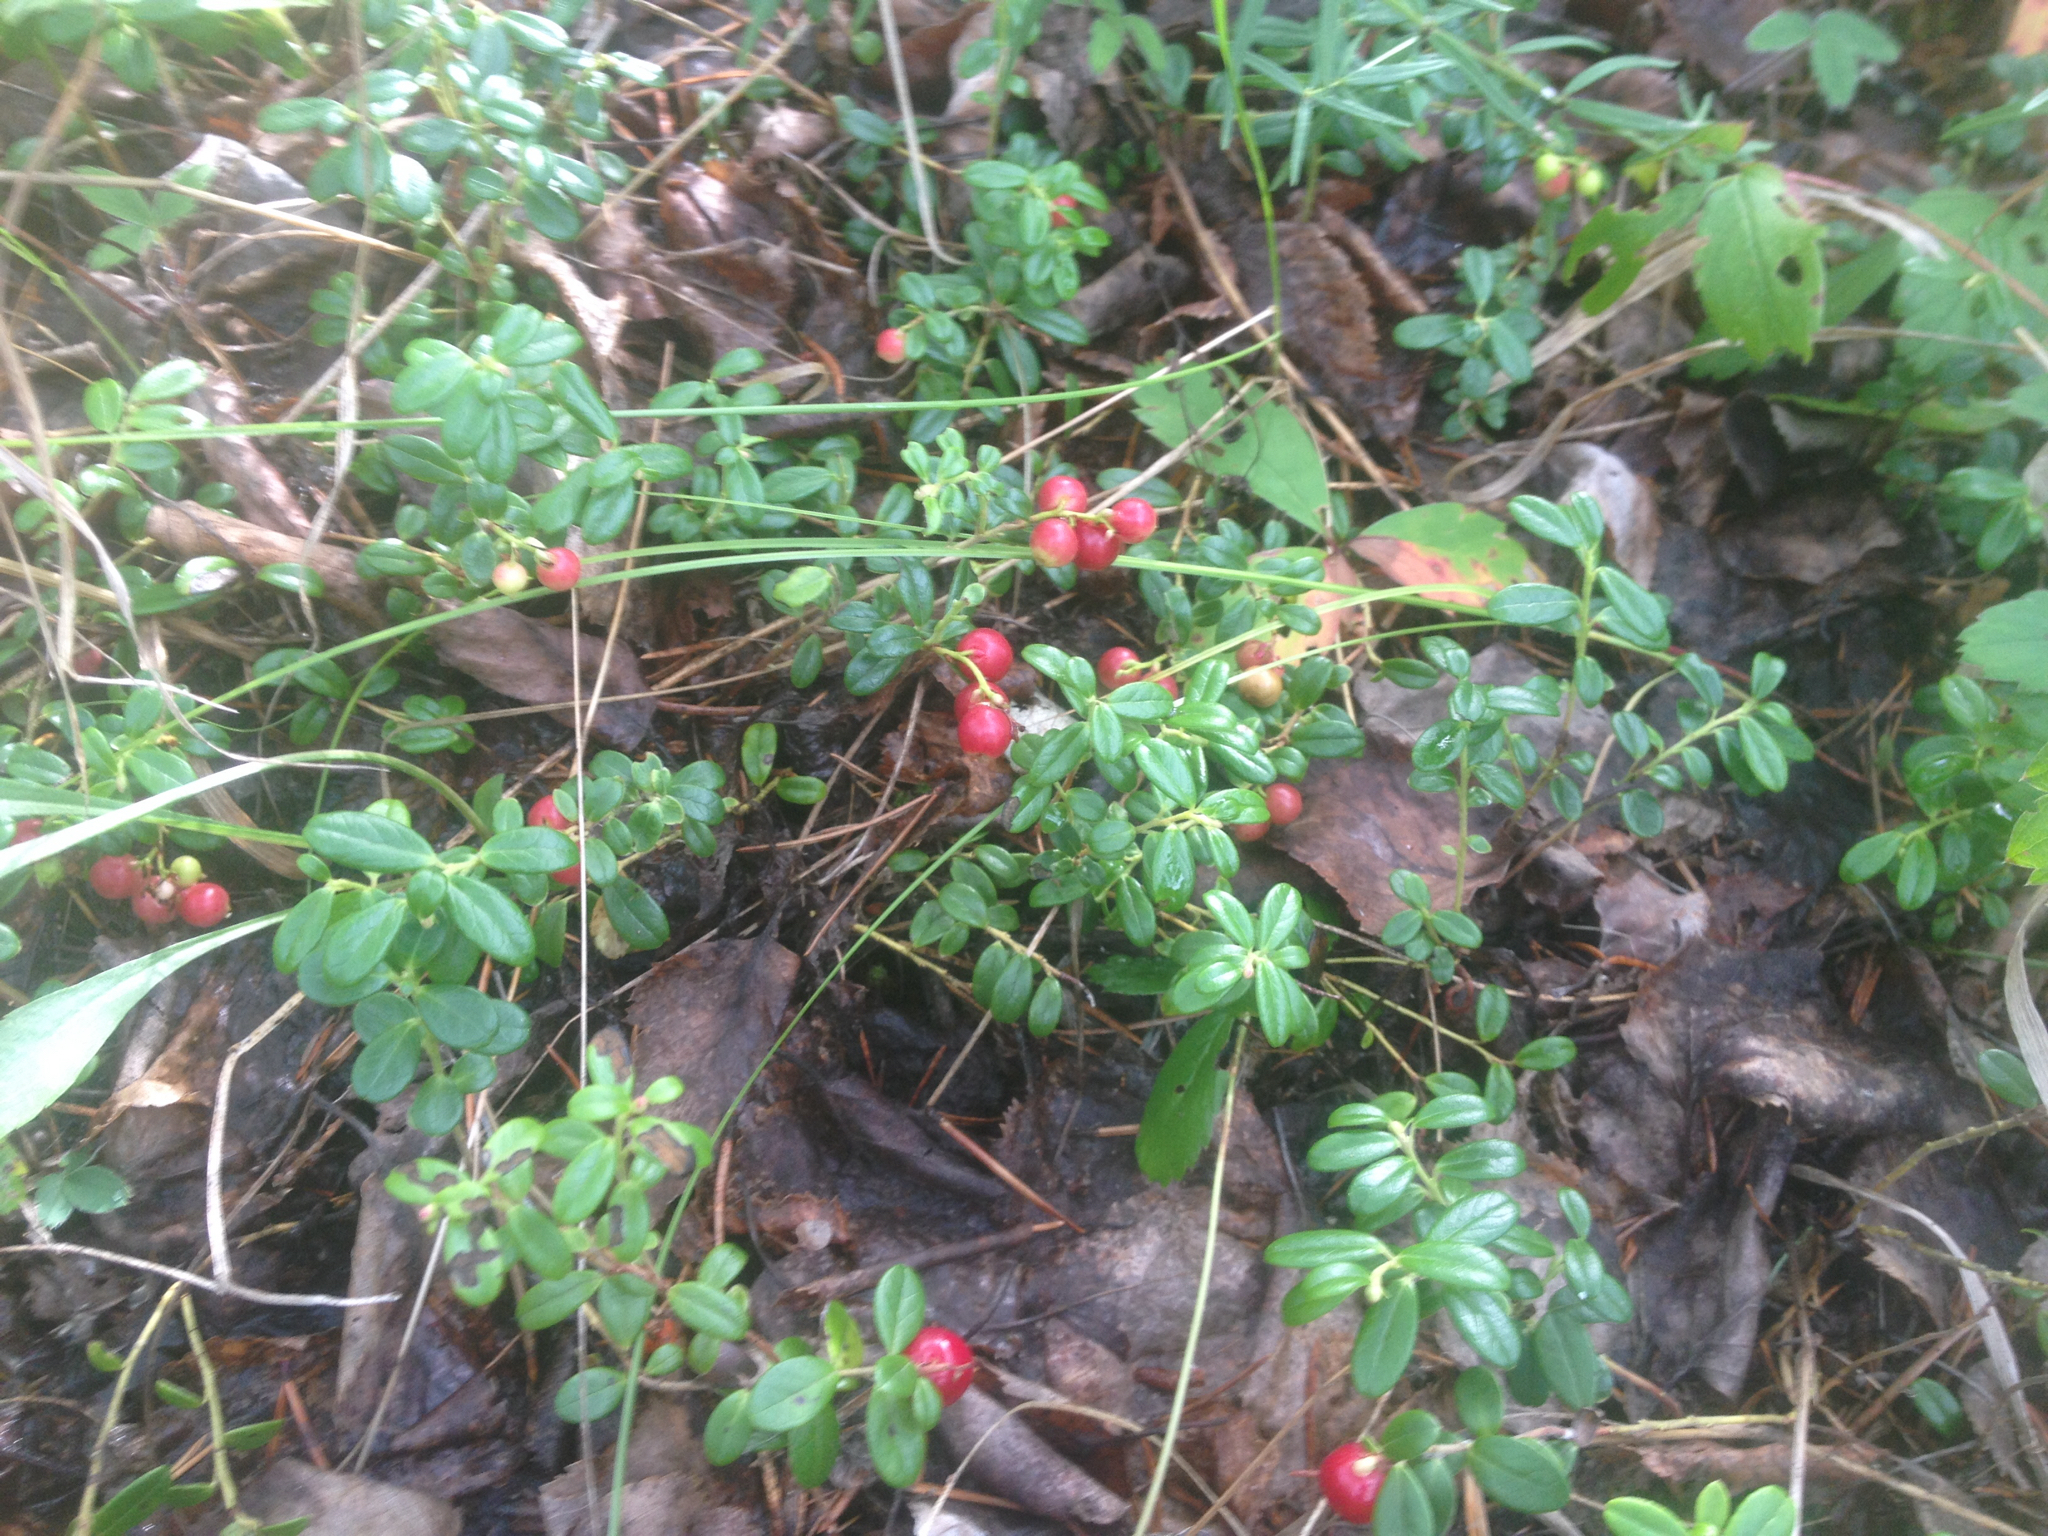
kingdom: Plantae
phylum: Tracheophyta
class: Magnoliopsida
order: Ericales
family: Ericaceae
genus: Vaccinium
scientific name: Vaccinium vitis-idaea
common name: Cowberry
